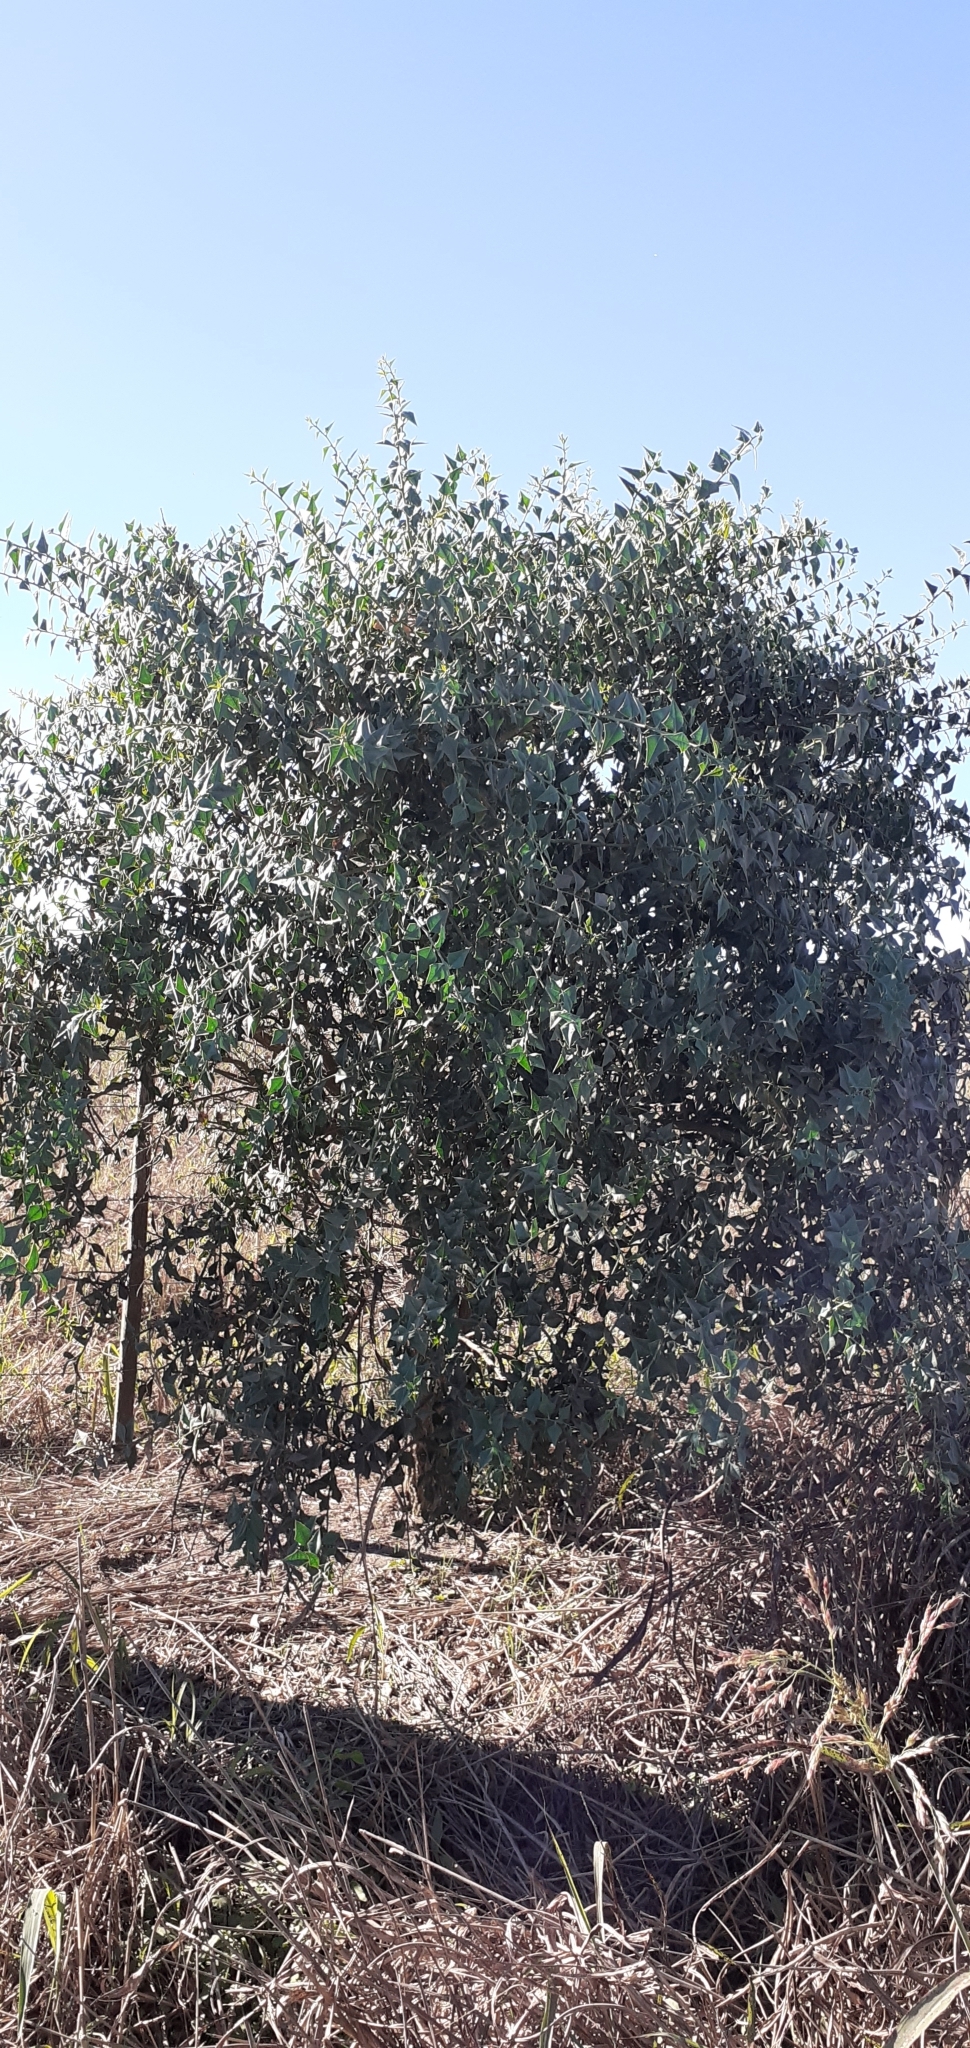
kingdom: Plantae
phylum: Tracheophyta
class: Magnoliopsida
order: Santalales
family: Cervantesiaceae
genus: Jodina
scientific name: Jodina rhombifolia
